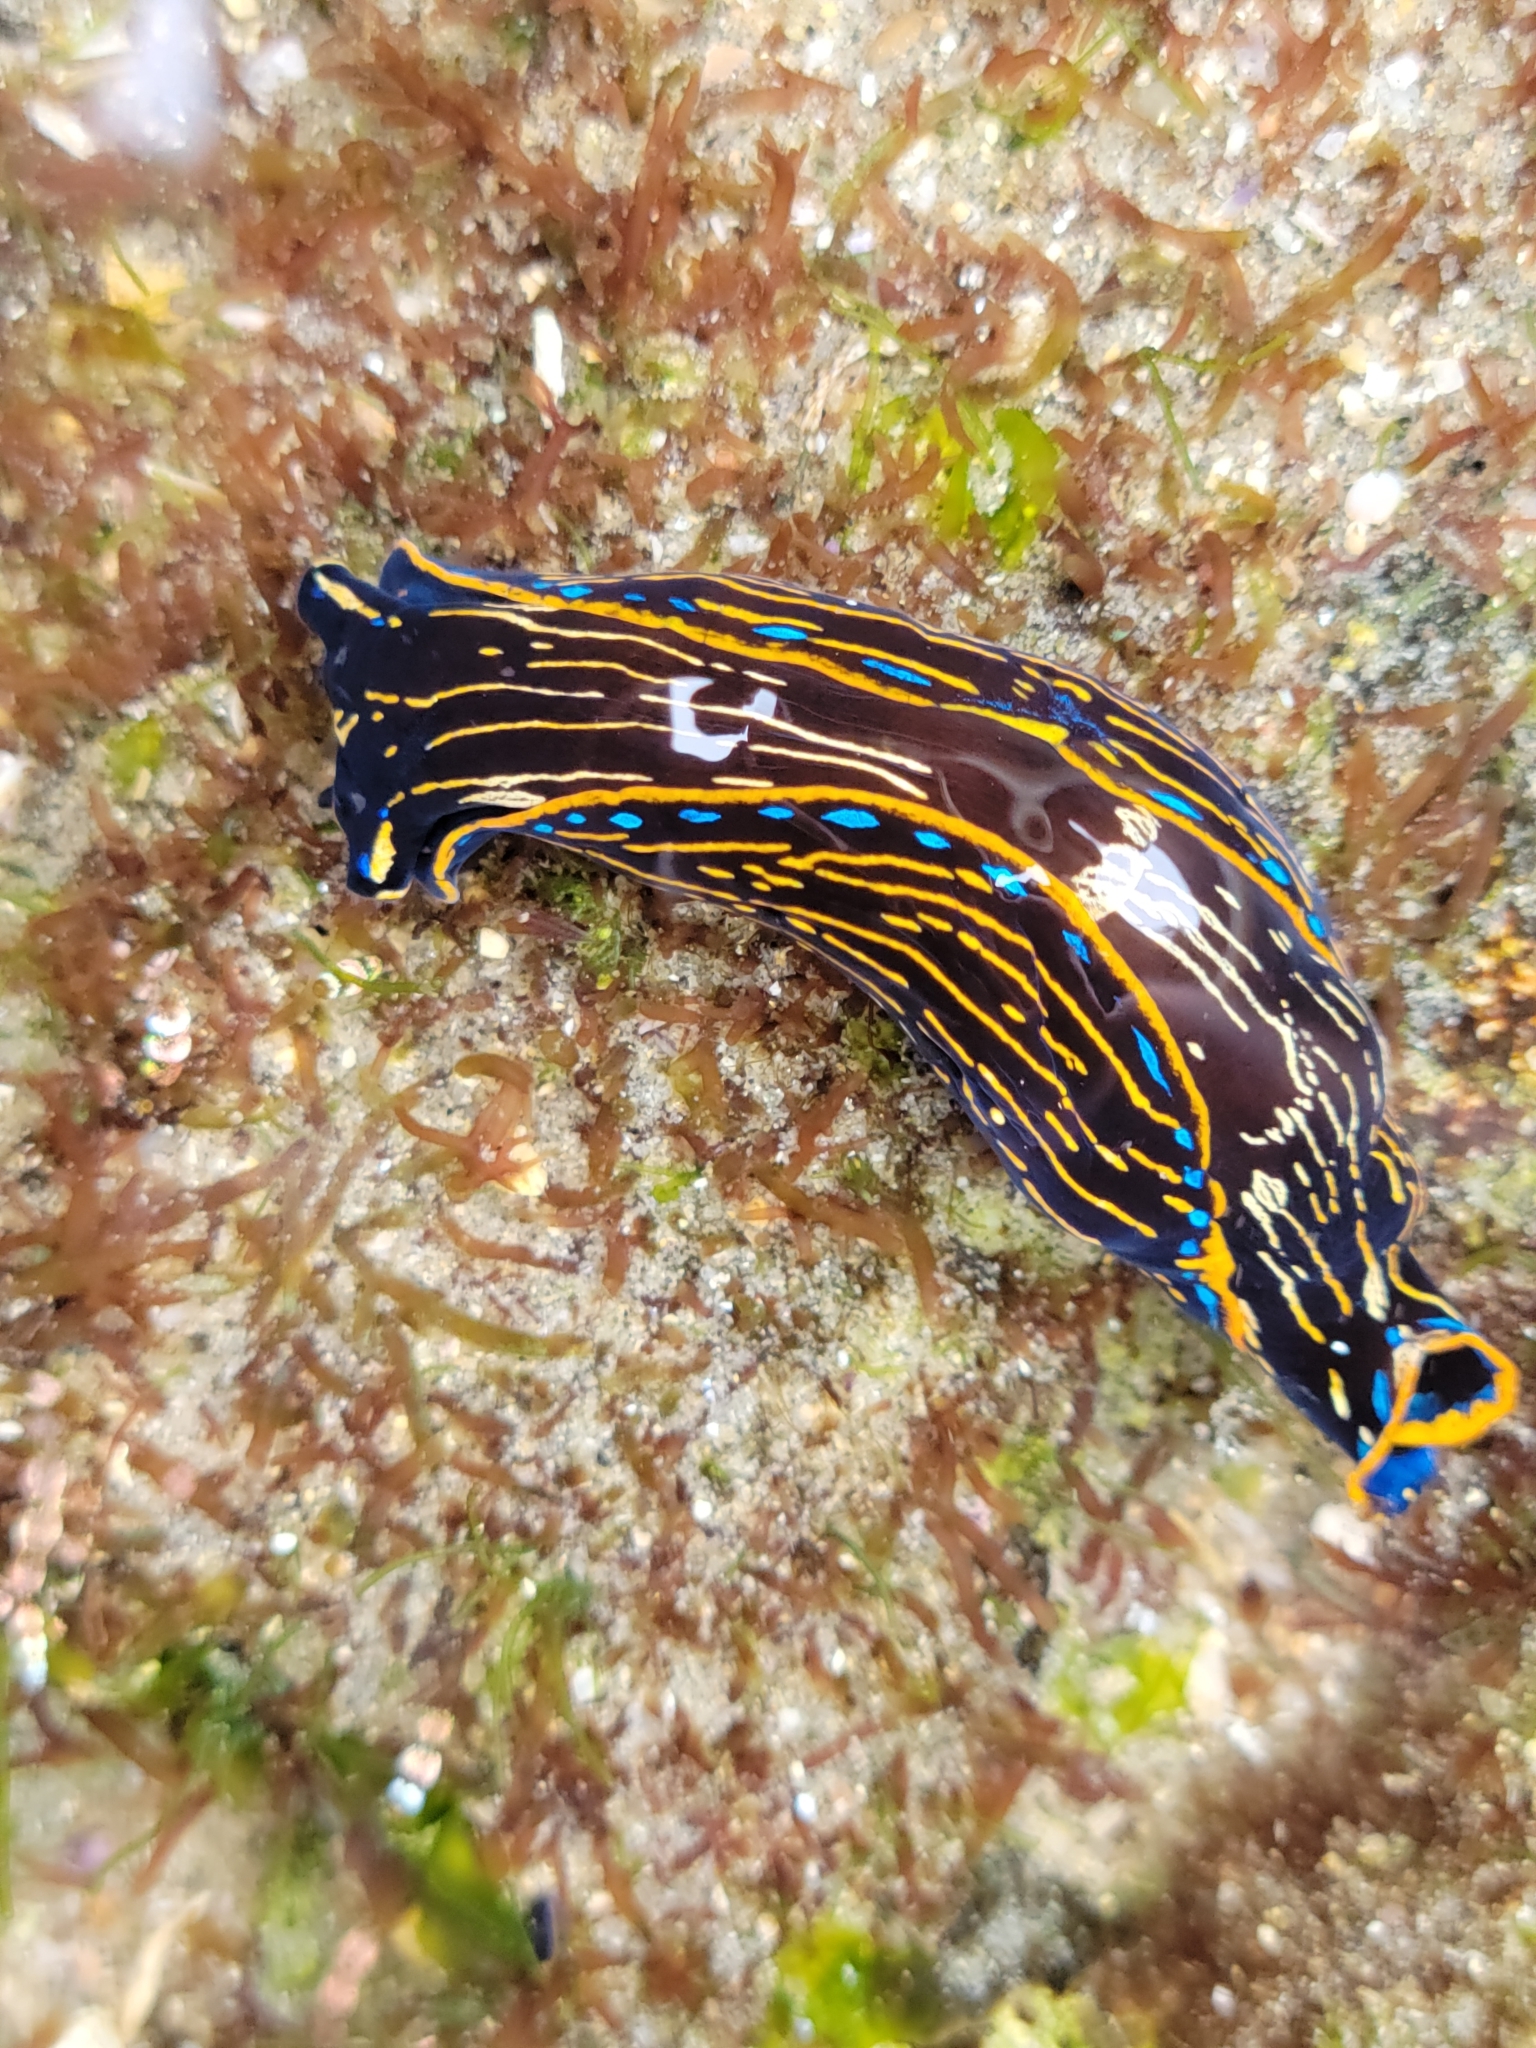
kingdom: Animalia
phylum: Mollusca
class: Gastropoda
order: Cephalaspidea
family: Aglajidae
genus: Navanax
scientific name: Navanax inermis
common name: California aglaja
